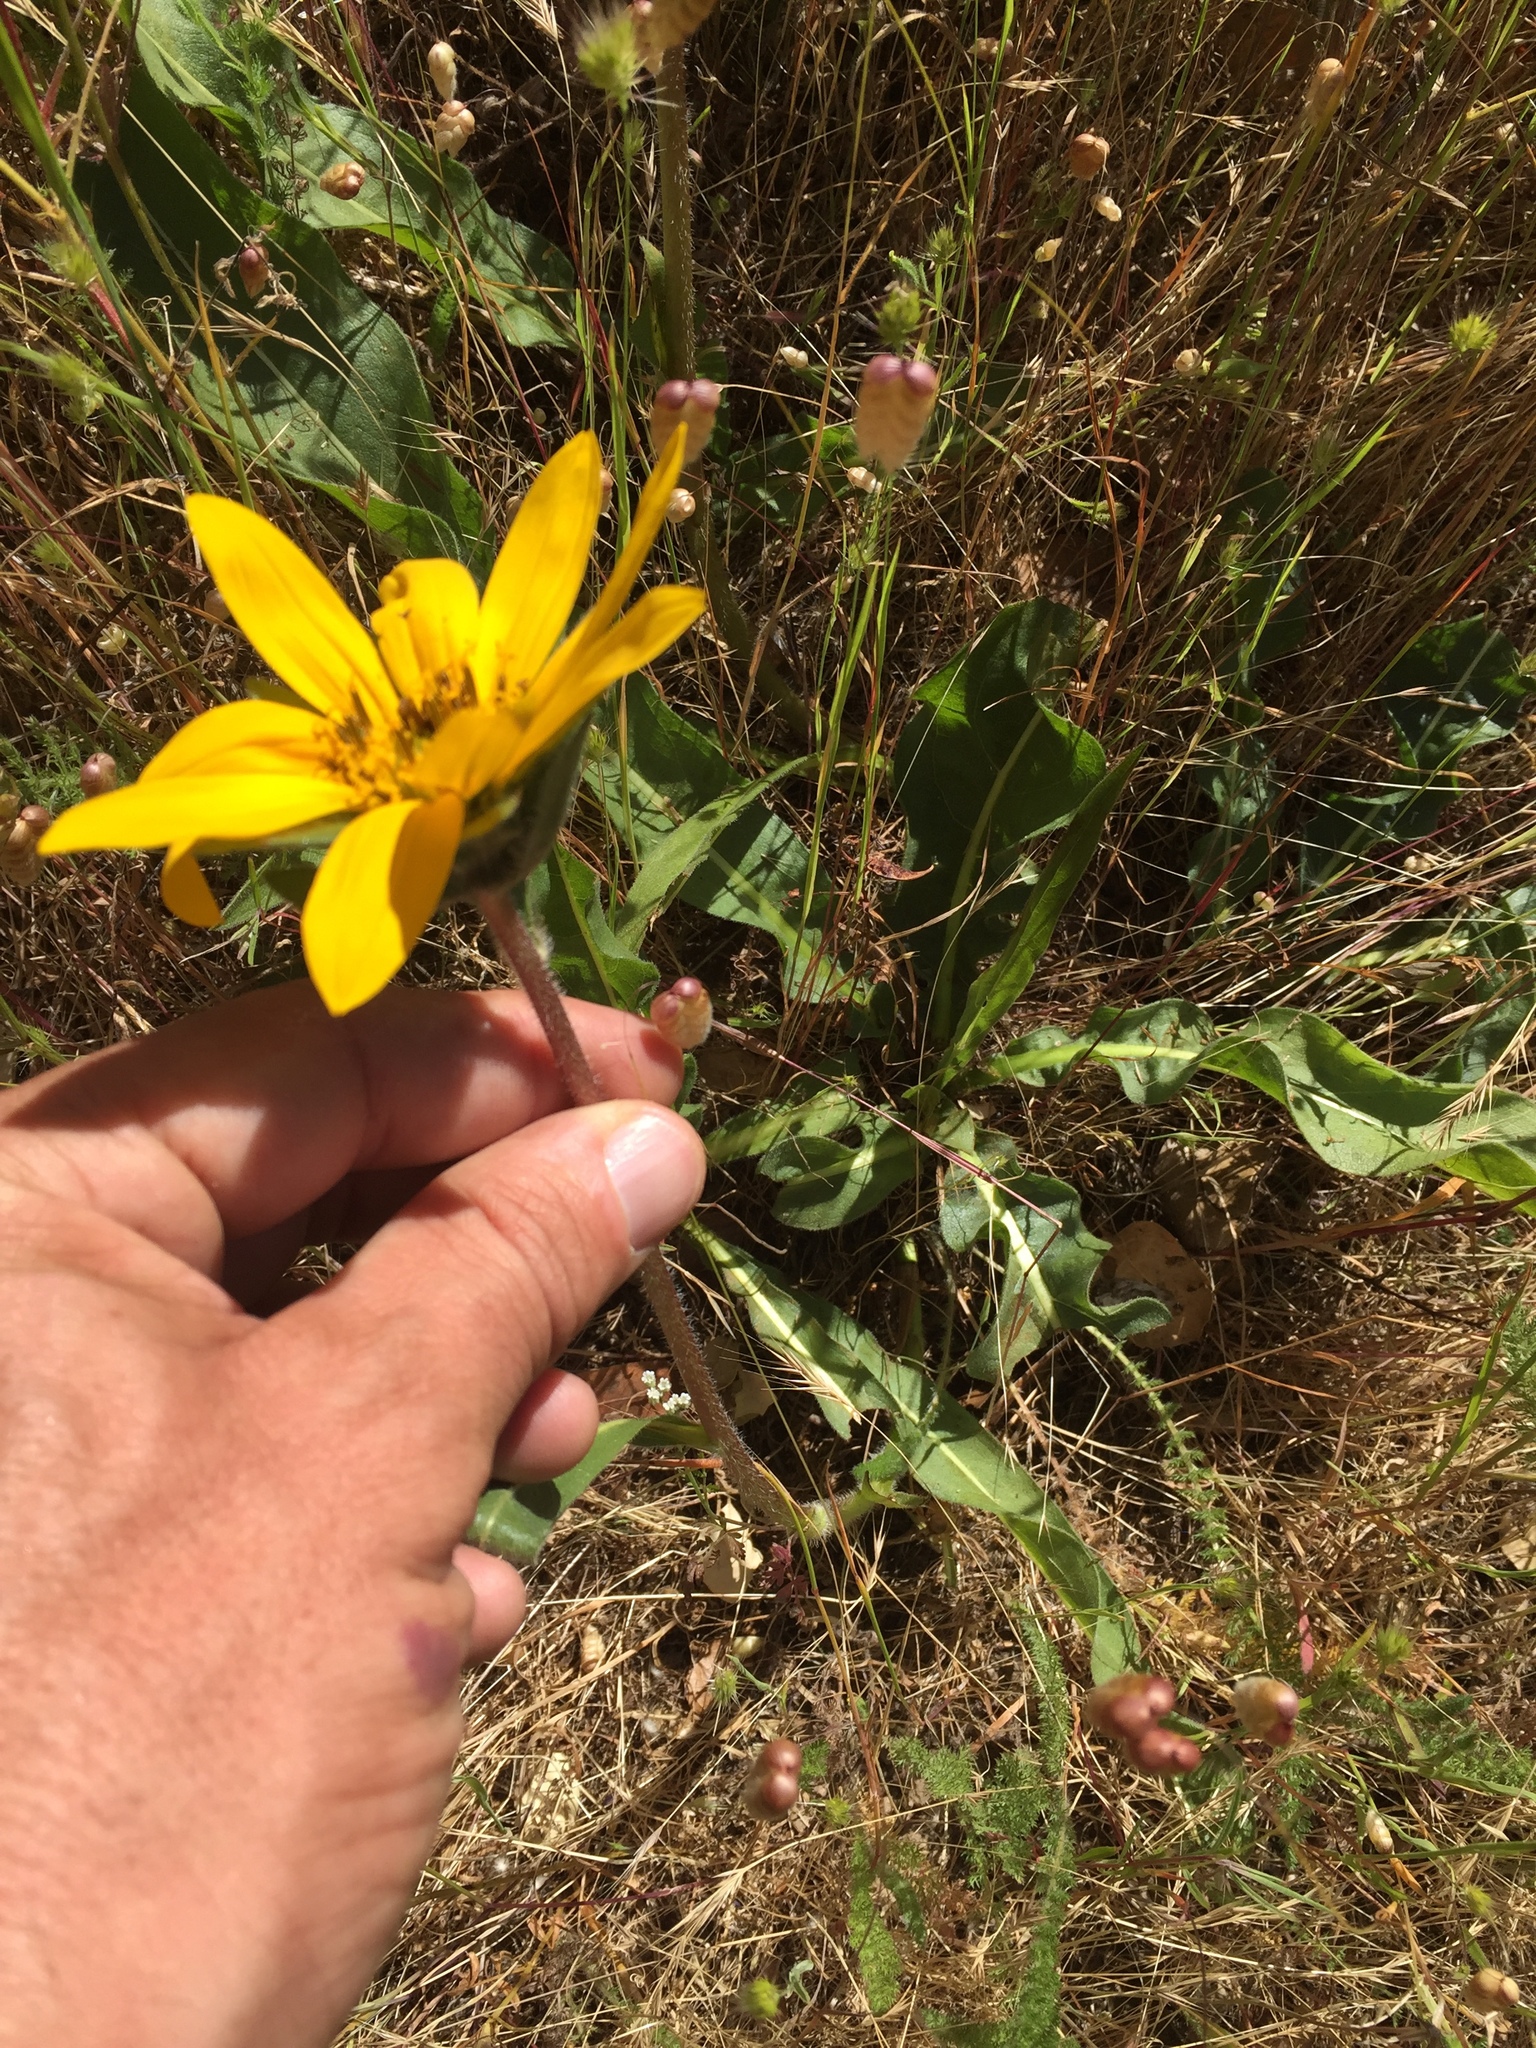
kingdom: Plantae
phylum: Tracheophyta
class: Magnoliopsida
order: Asterales
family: Asteraceae
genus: Wyethia
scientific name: Wyethia angustifolia
